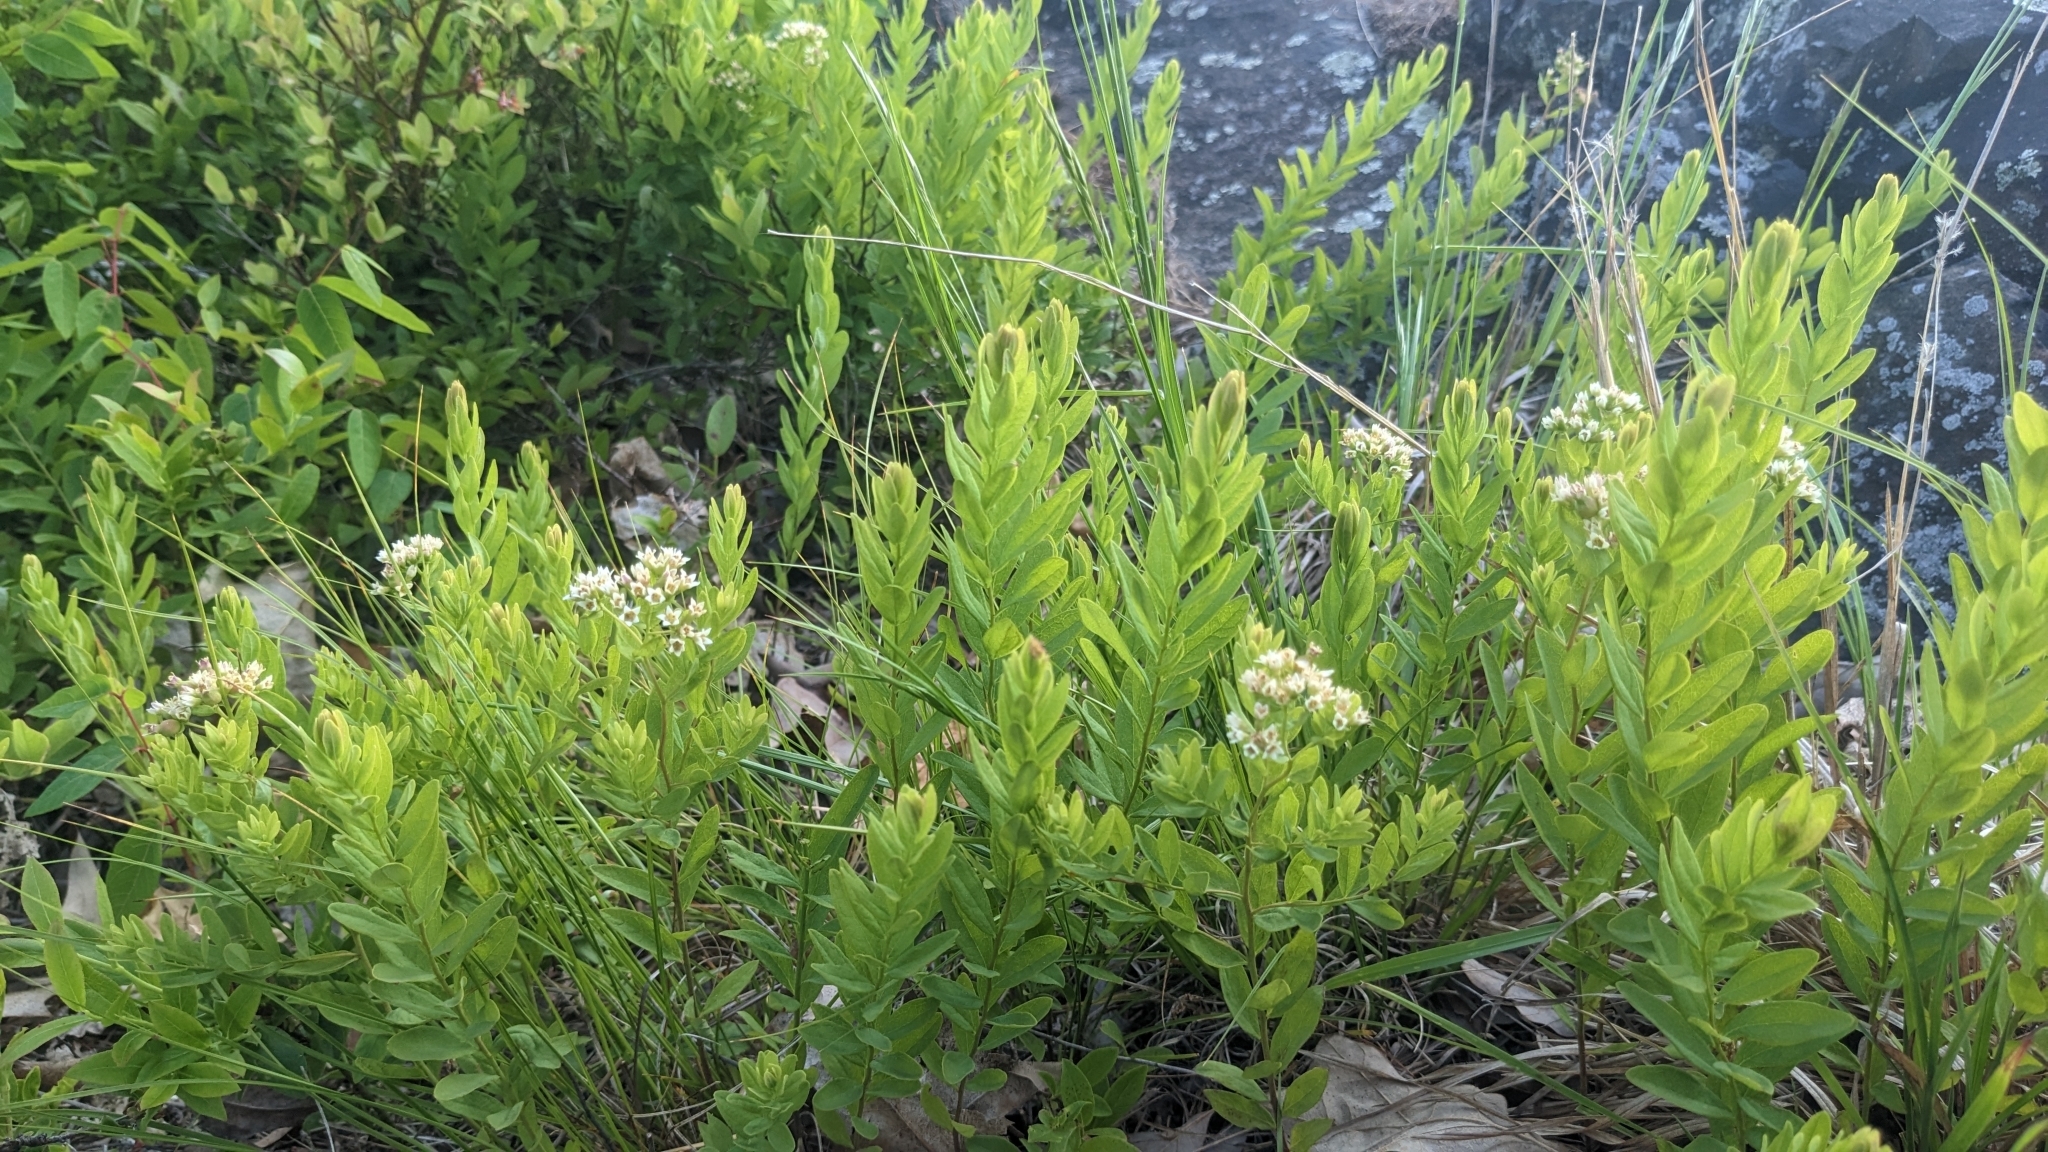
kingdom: Plantae
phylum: Tracheophyta
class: Magnoliopsida
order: Santalales
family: Comandraceae
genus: Comandra
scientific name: Comandra umbellata
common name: Bastard toadflax
